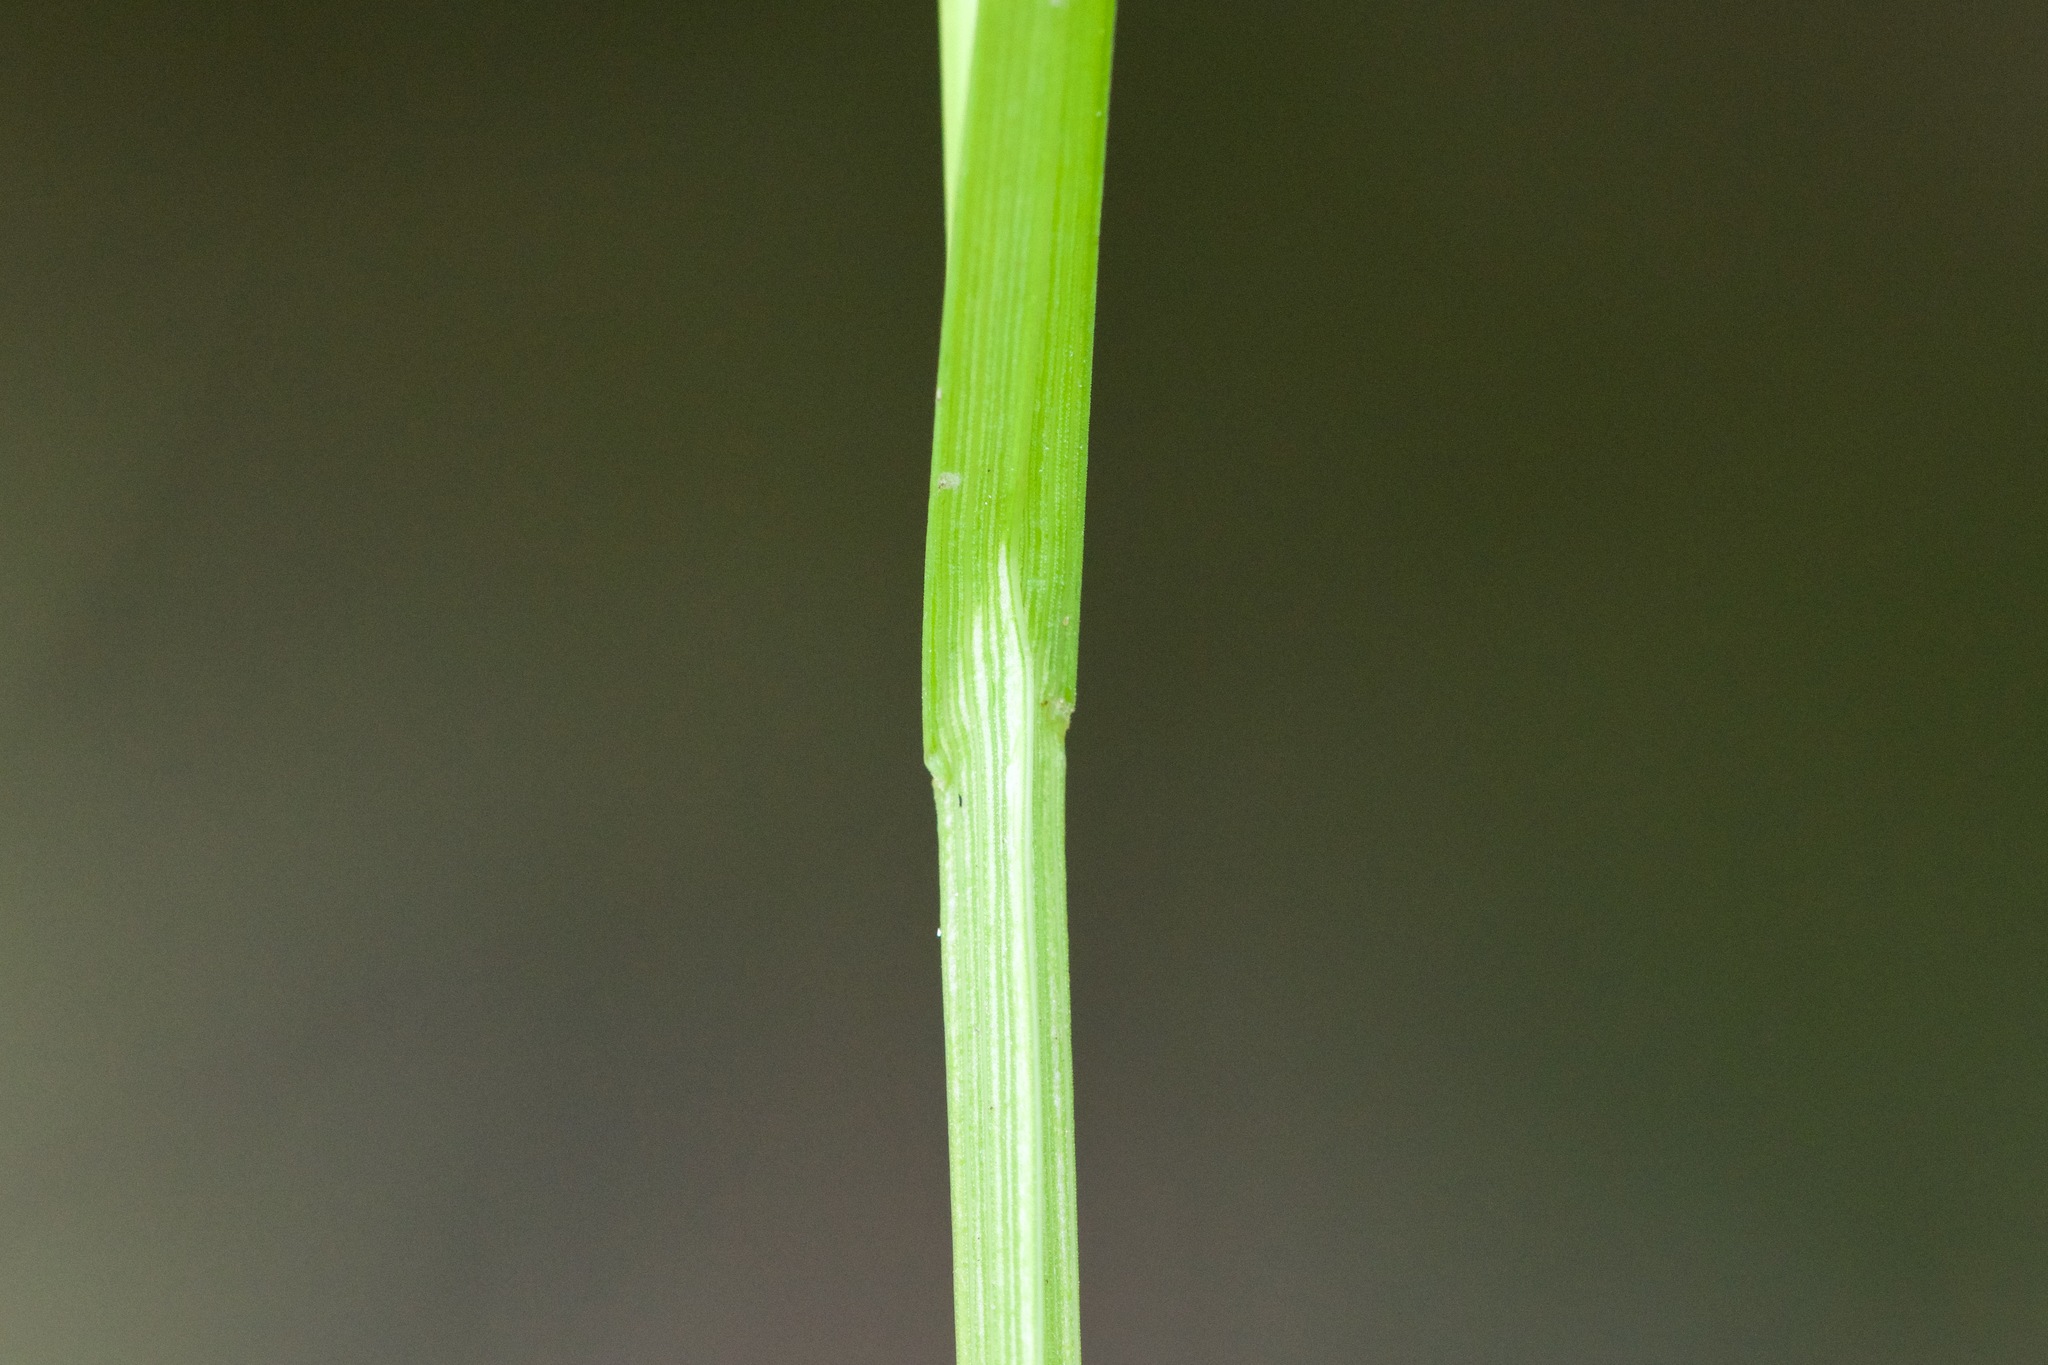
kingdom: Plantae
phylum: Tracheophyta
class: Liliopsida
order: Poales
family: Cyperaceae
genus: Carex
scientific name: Carex bebbii
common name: Bebb's sedge
